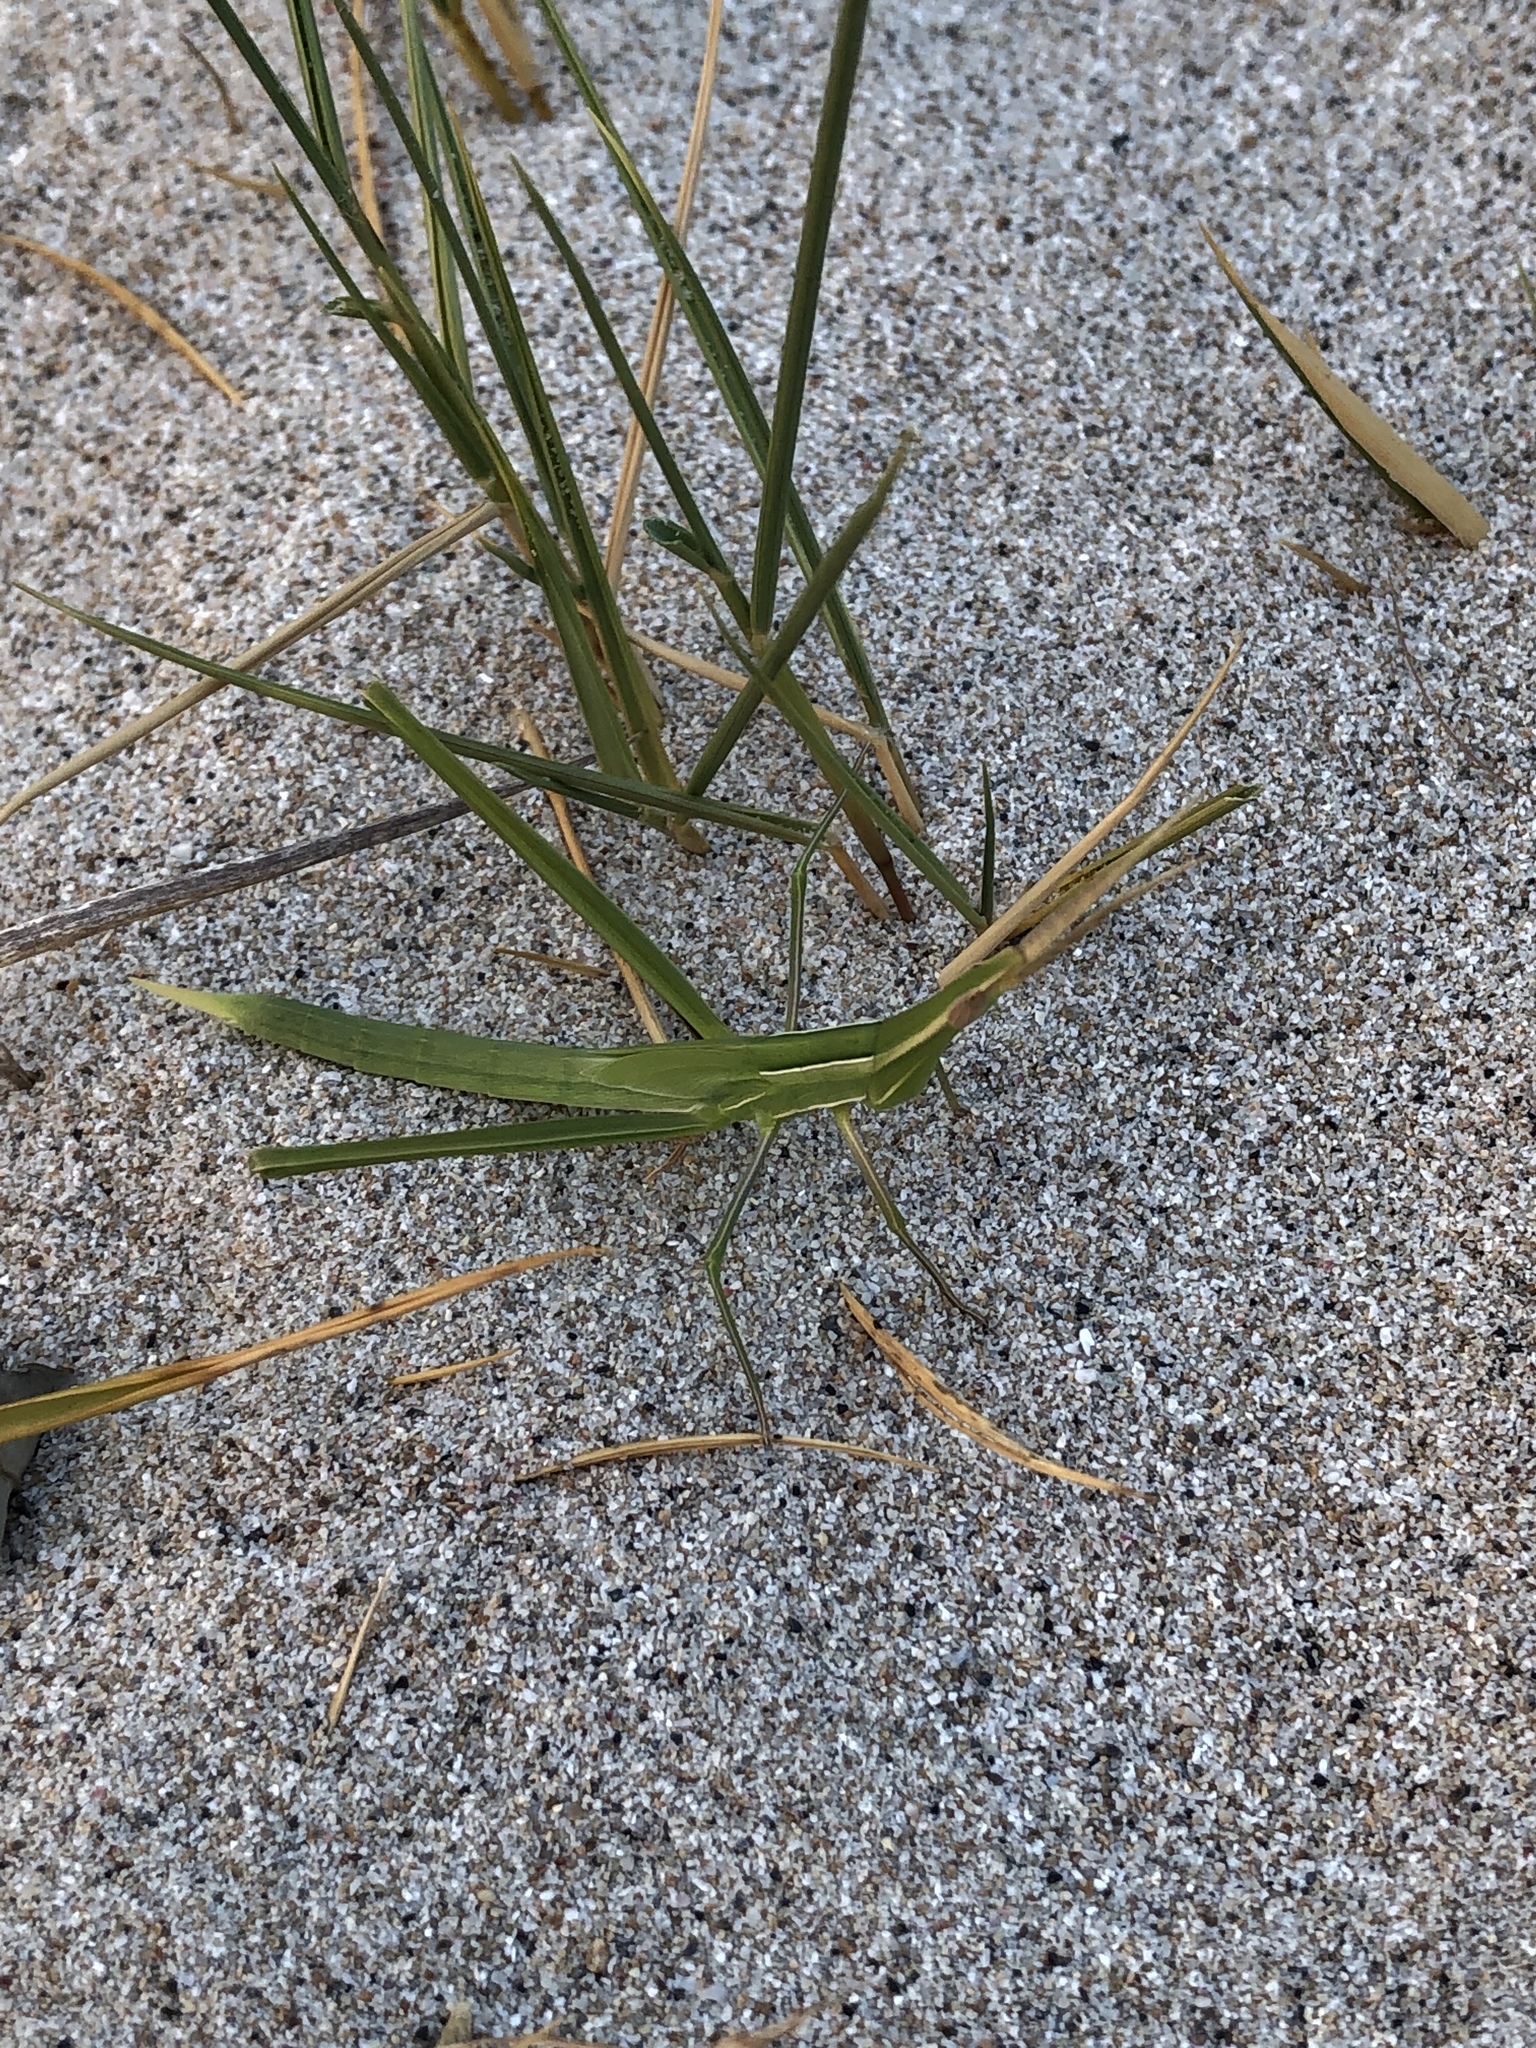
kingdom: Animalia
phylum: Arthropoda
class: Insecta
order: Orthoptera
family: Acrididae
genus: Acrida
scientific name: Acrida conica
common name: Giant green slantface
